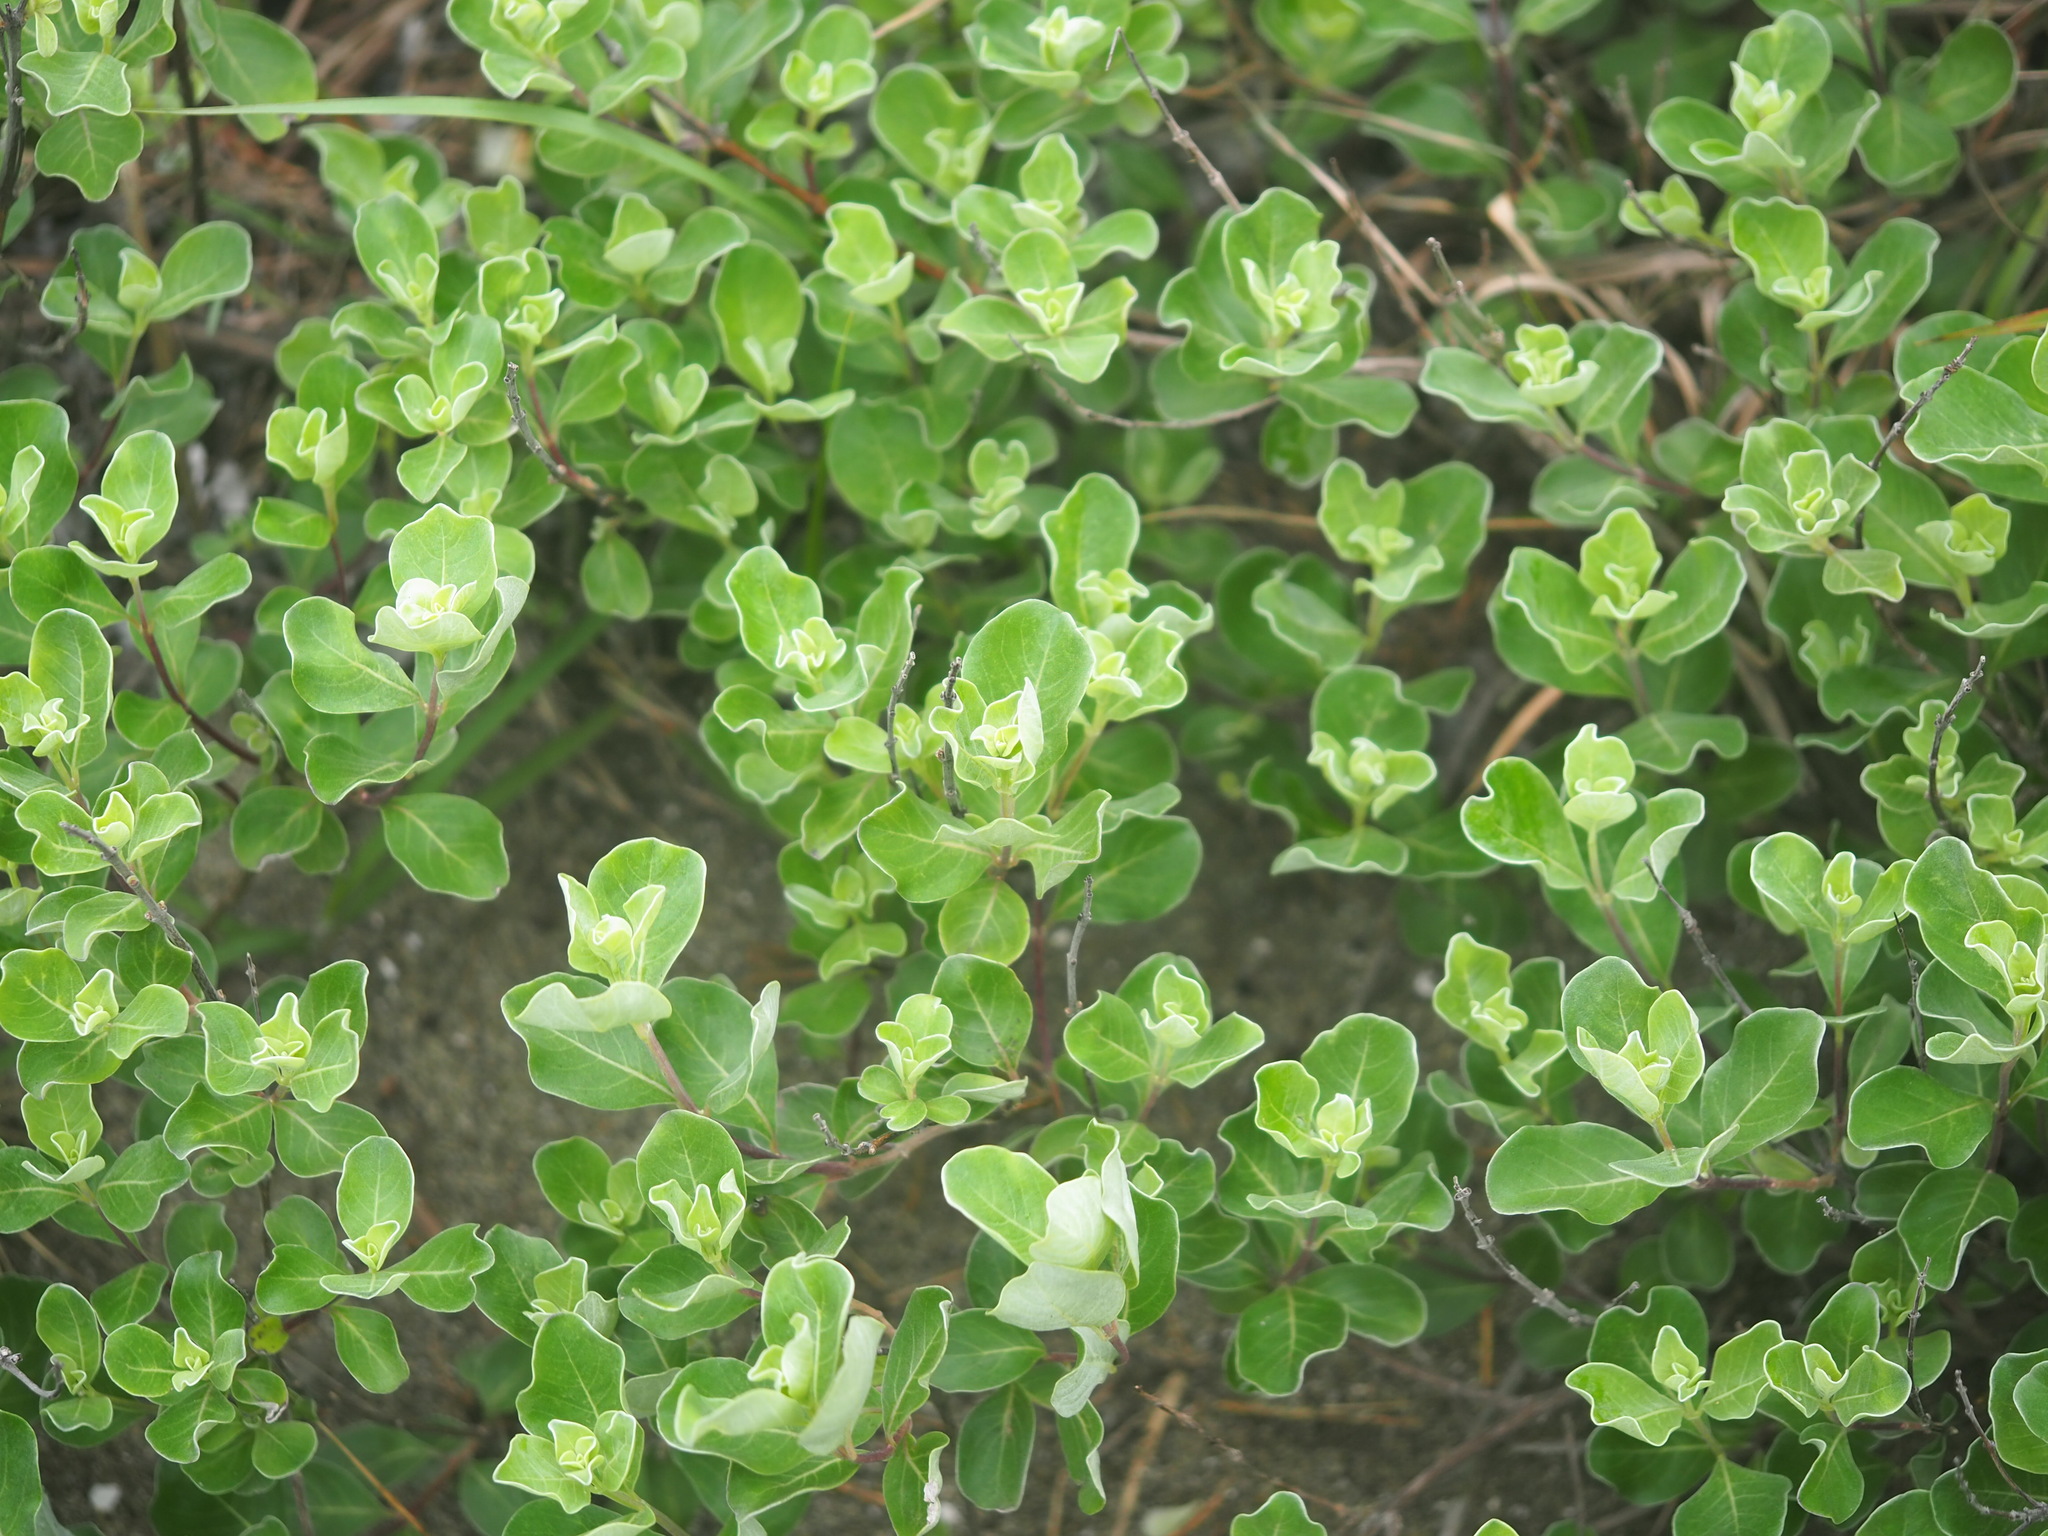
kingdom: Plantae
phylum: Tracheophyta
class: Magnoliopsida
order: Lamiales
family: Lamiaceae
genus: Vitex
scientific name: Vitex rotundifolia
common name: Beach vitex
